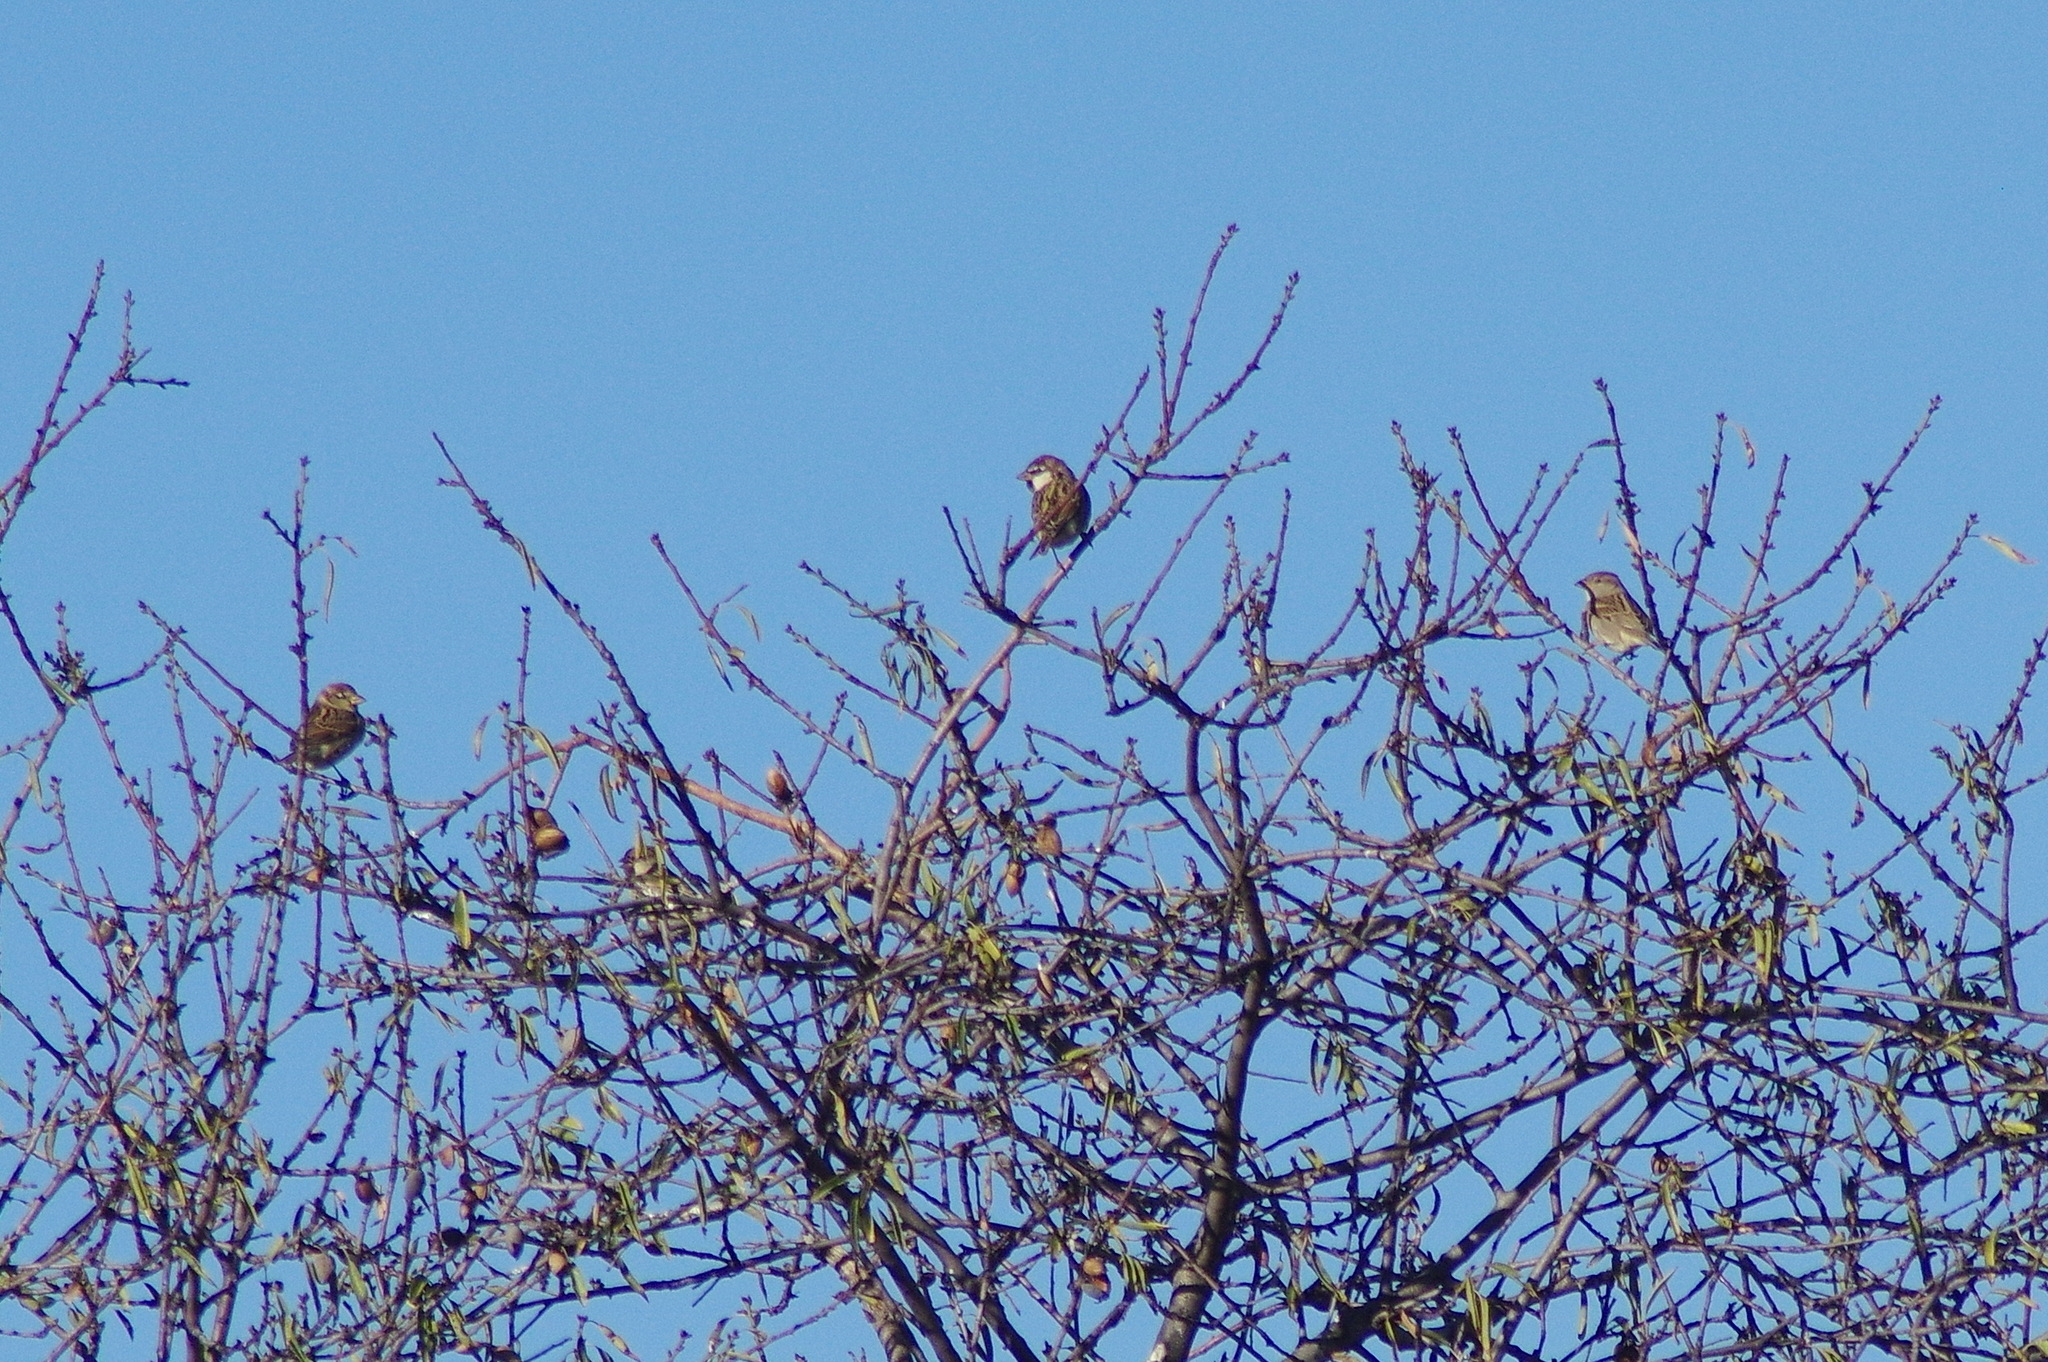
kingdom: Animalia
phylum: Chordata
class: Aves
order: Passeriformes
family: Passeridae
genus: Passer
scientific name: Passer hispaniolensis
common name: Spanish sparrow
